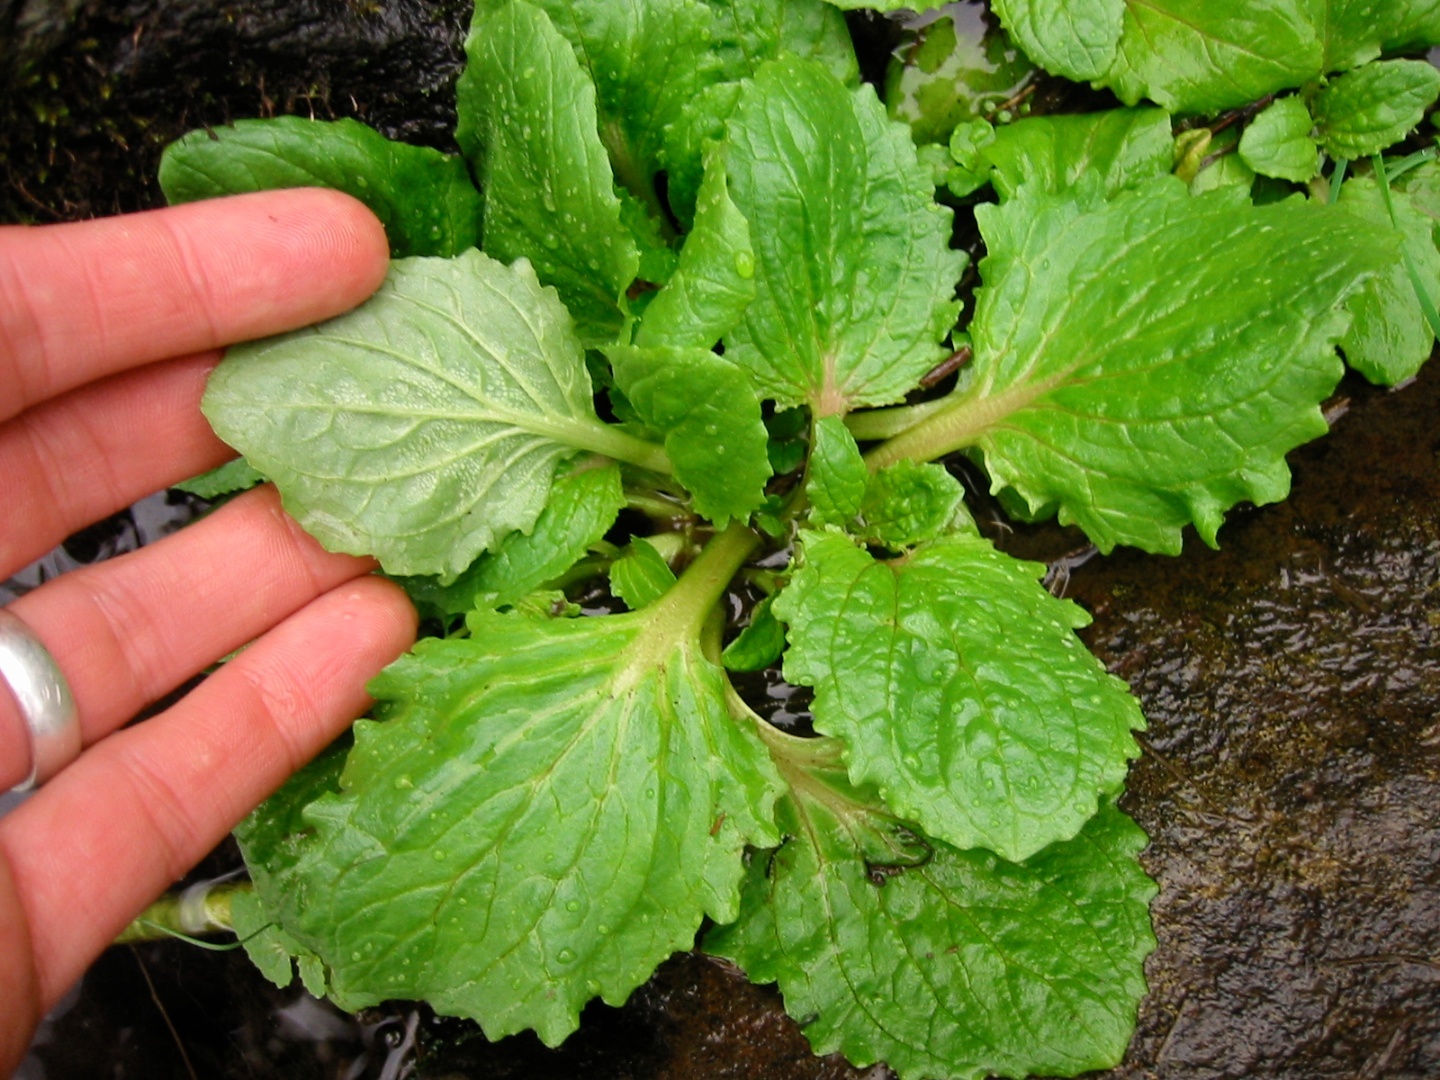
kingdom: Plantae
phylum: Tracheophyta
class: Magnoliopsida
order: Lamiales
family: Phrymaceae
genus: Erythranthe
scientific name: Erythranthe guttata
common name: Monkeyflower
